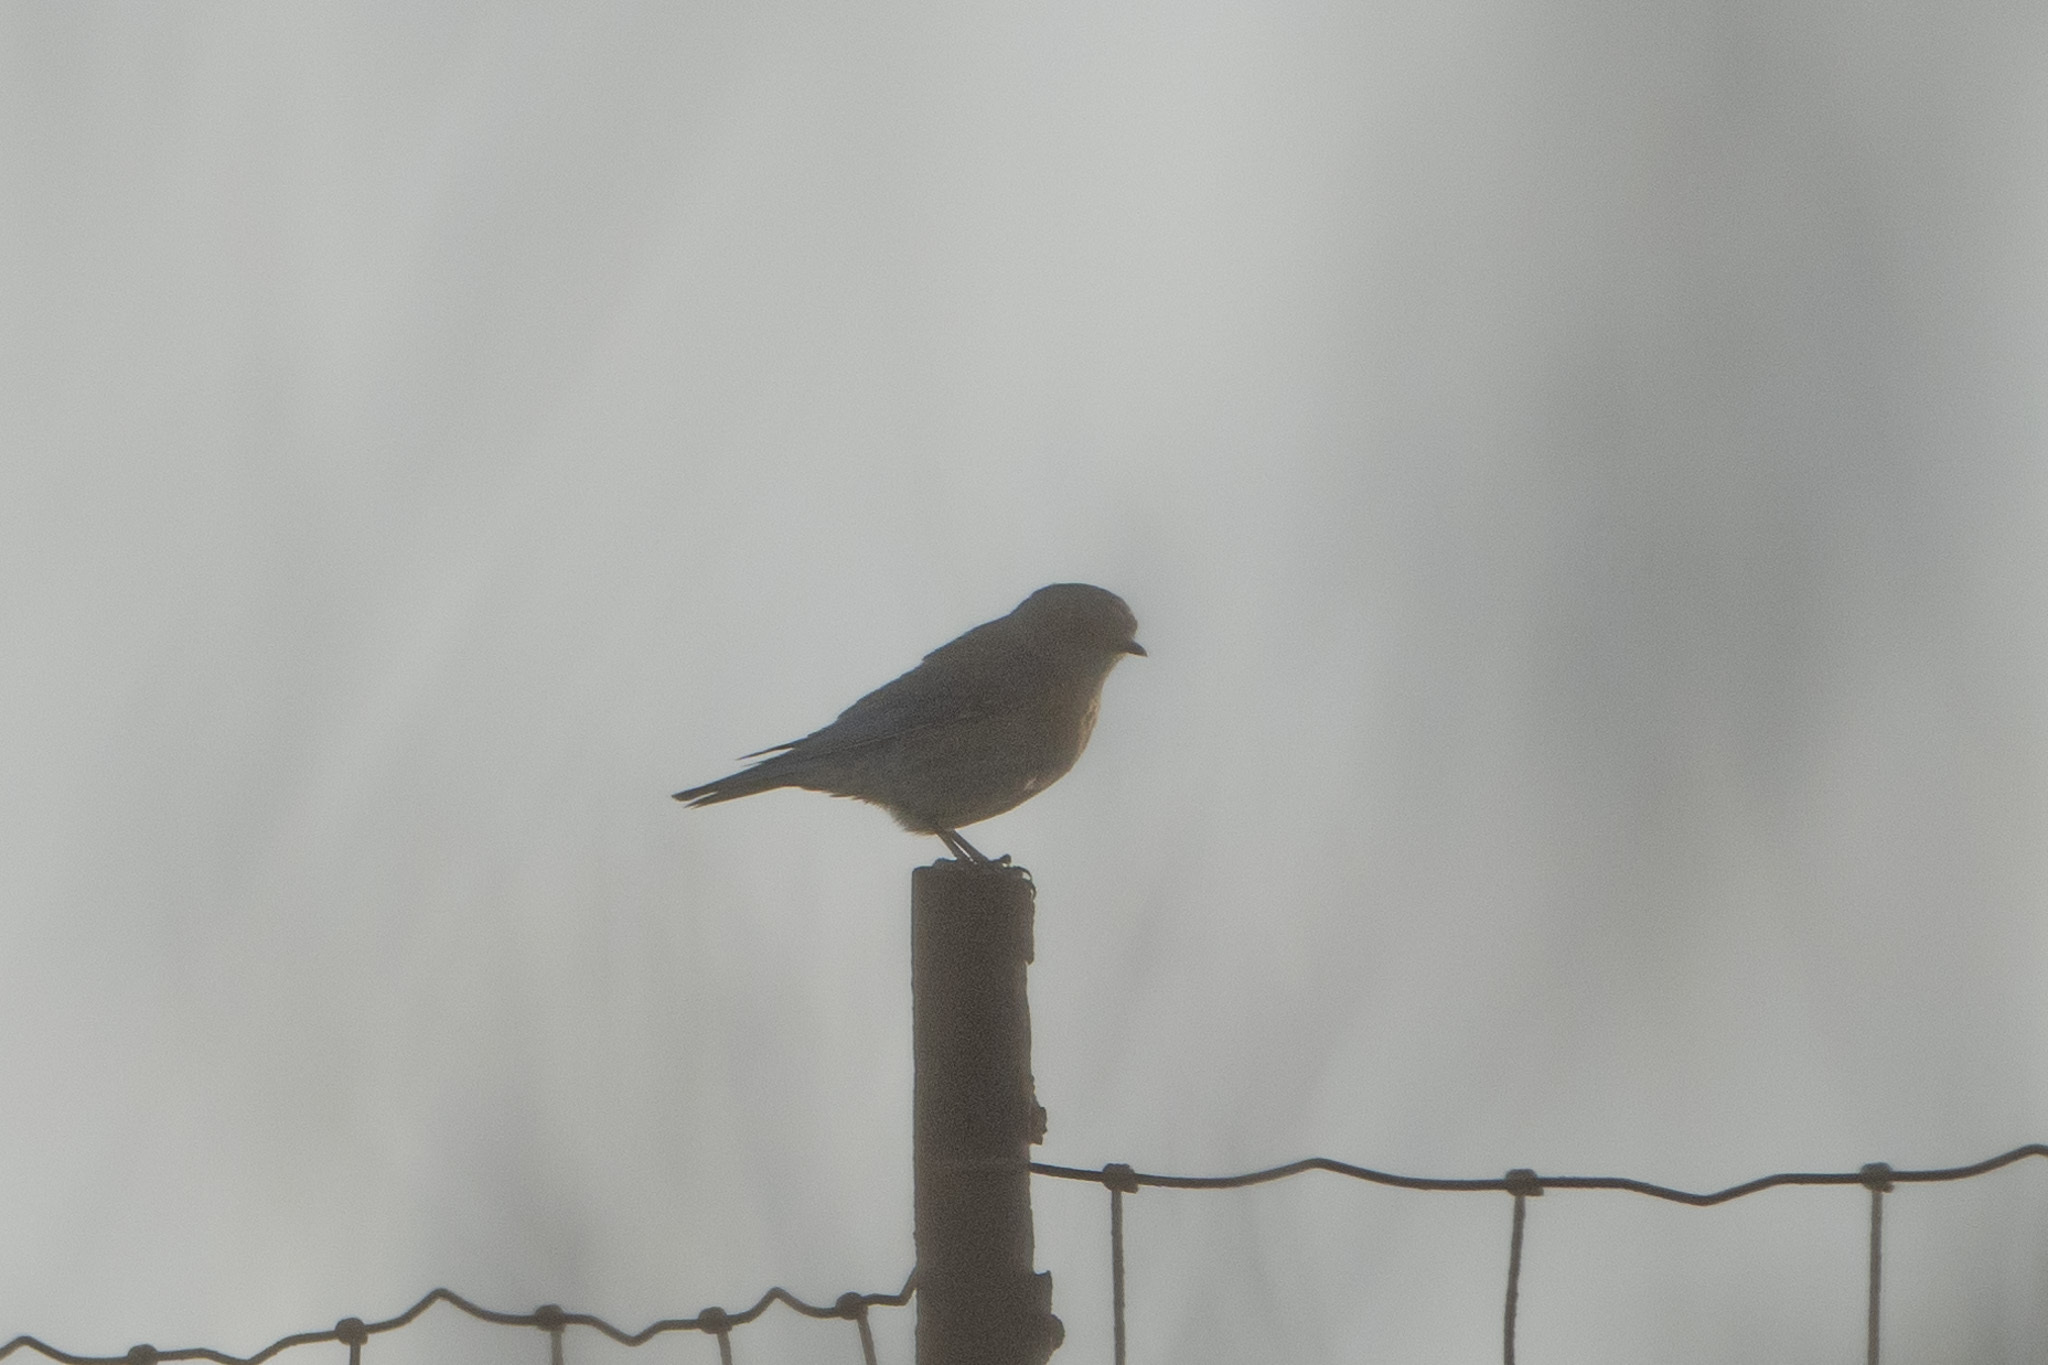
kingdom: Animalia
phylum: Chordata
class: Aves
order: Passeriformes
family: Turdidae
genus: Sialia
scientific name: Sialia mexicana
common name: Western bluebird
